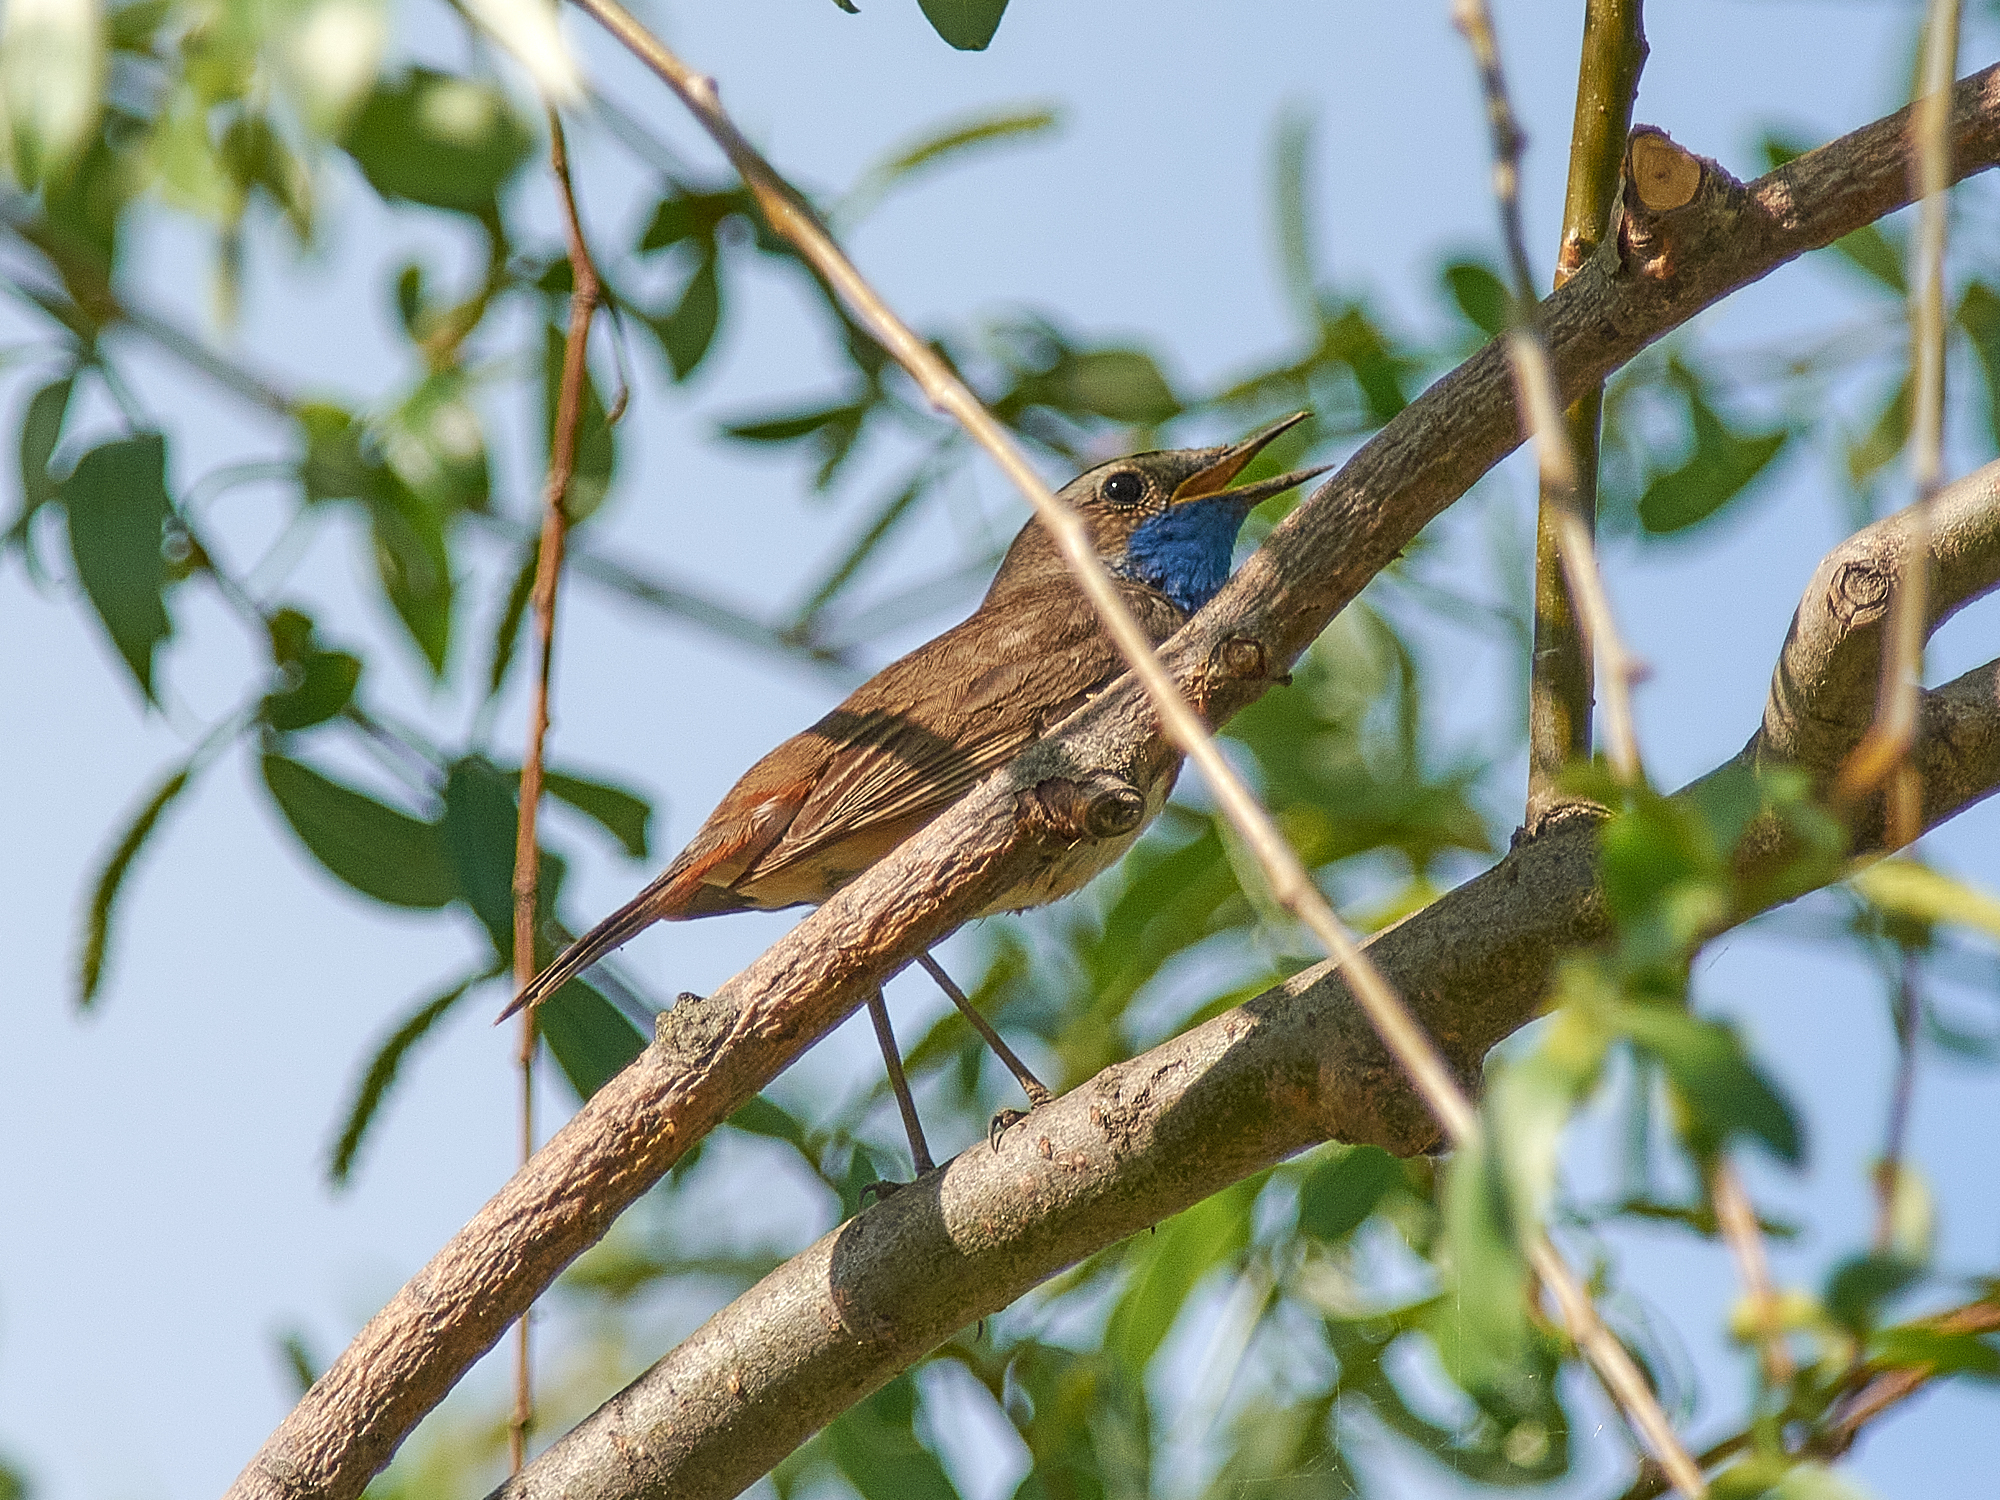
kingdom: Animalia
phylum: Chordata
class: Aves
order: Passeriformes
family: Muscicapidae
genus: Luscinia
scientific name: Luscinia svecica
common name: Bluethroat
